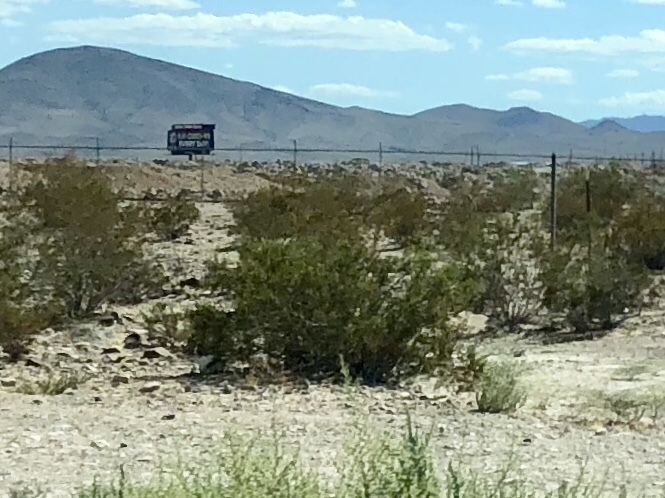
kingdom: Plantae
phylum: Tracheophyta
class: Magnoliopsida
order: Zygophyllales
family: Zygophyllaceae
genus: Larrea
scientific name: Larrea tridentata
